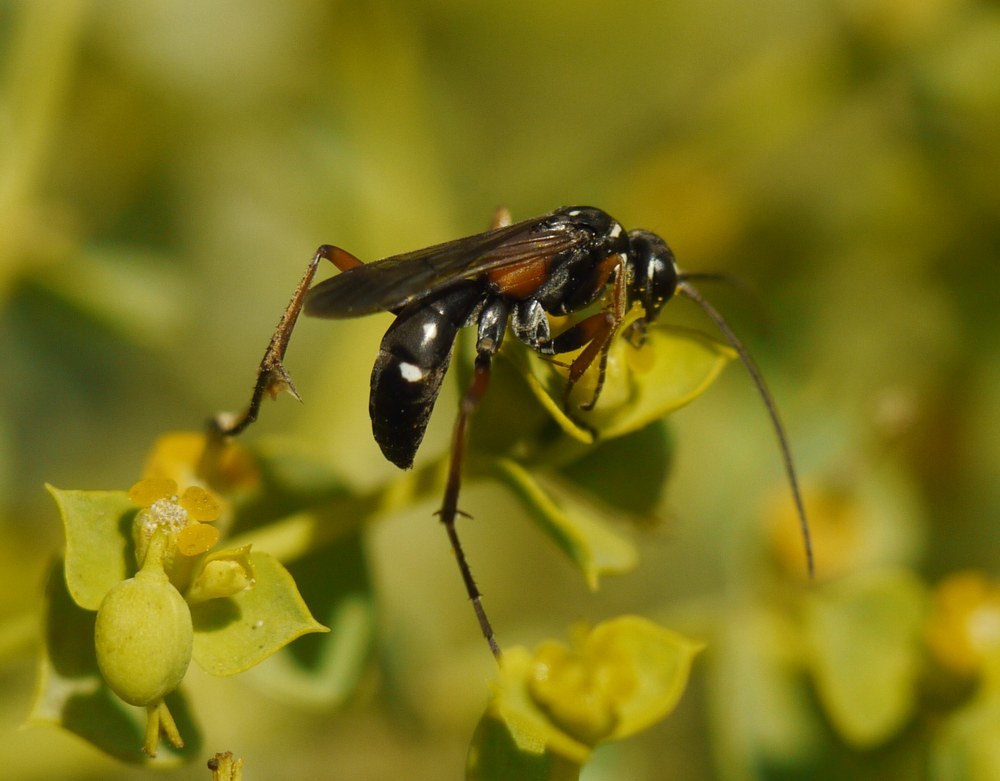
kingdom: Animalia
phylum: Arthropoda
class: Insecta
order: Hymenoptera
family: Pompilidae
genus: Cryptocheilus
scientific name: Cryptocheilus fabricii
